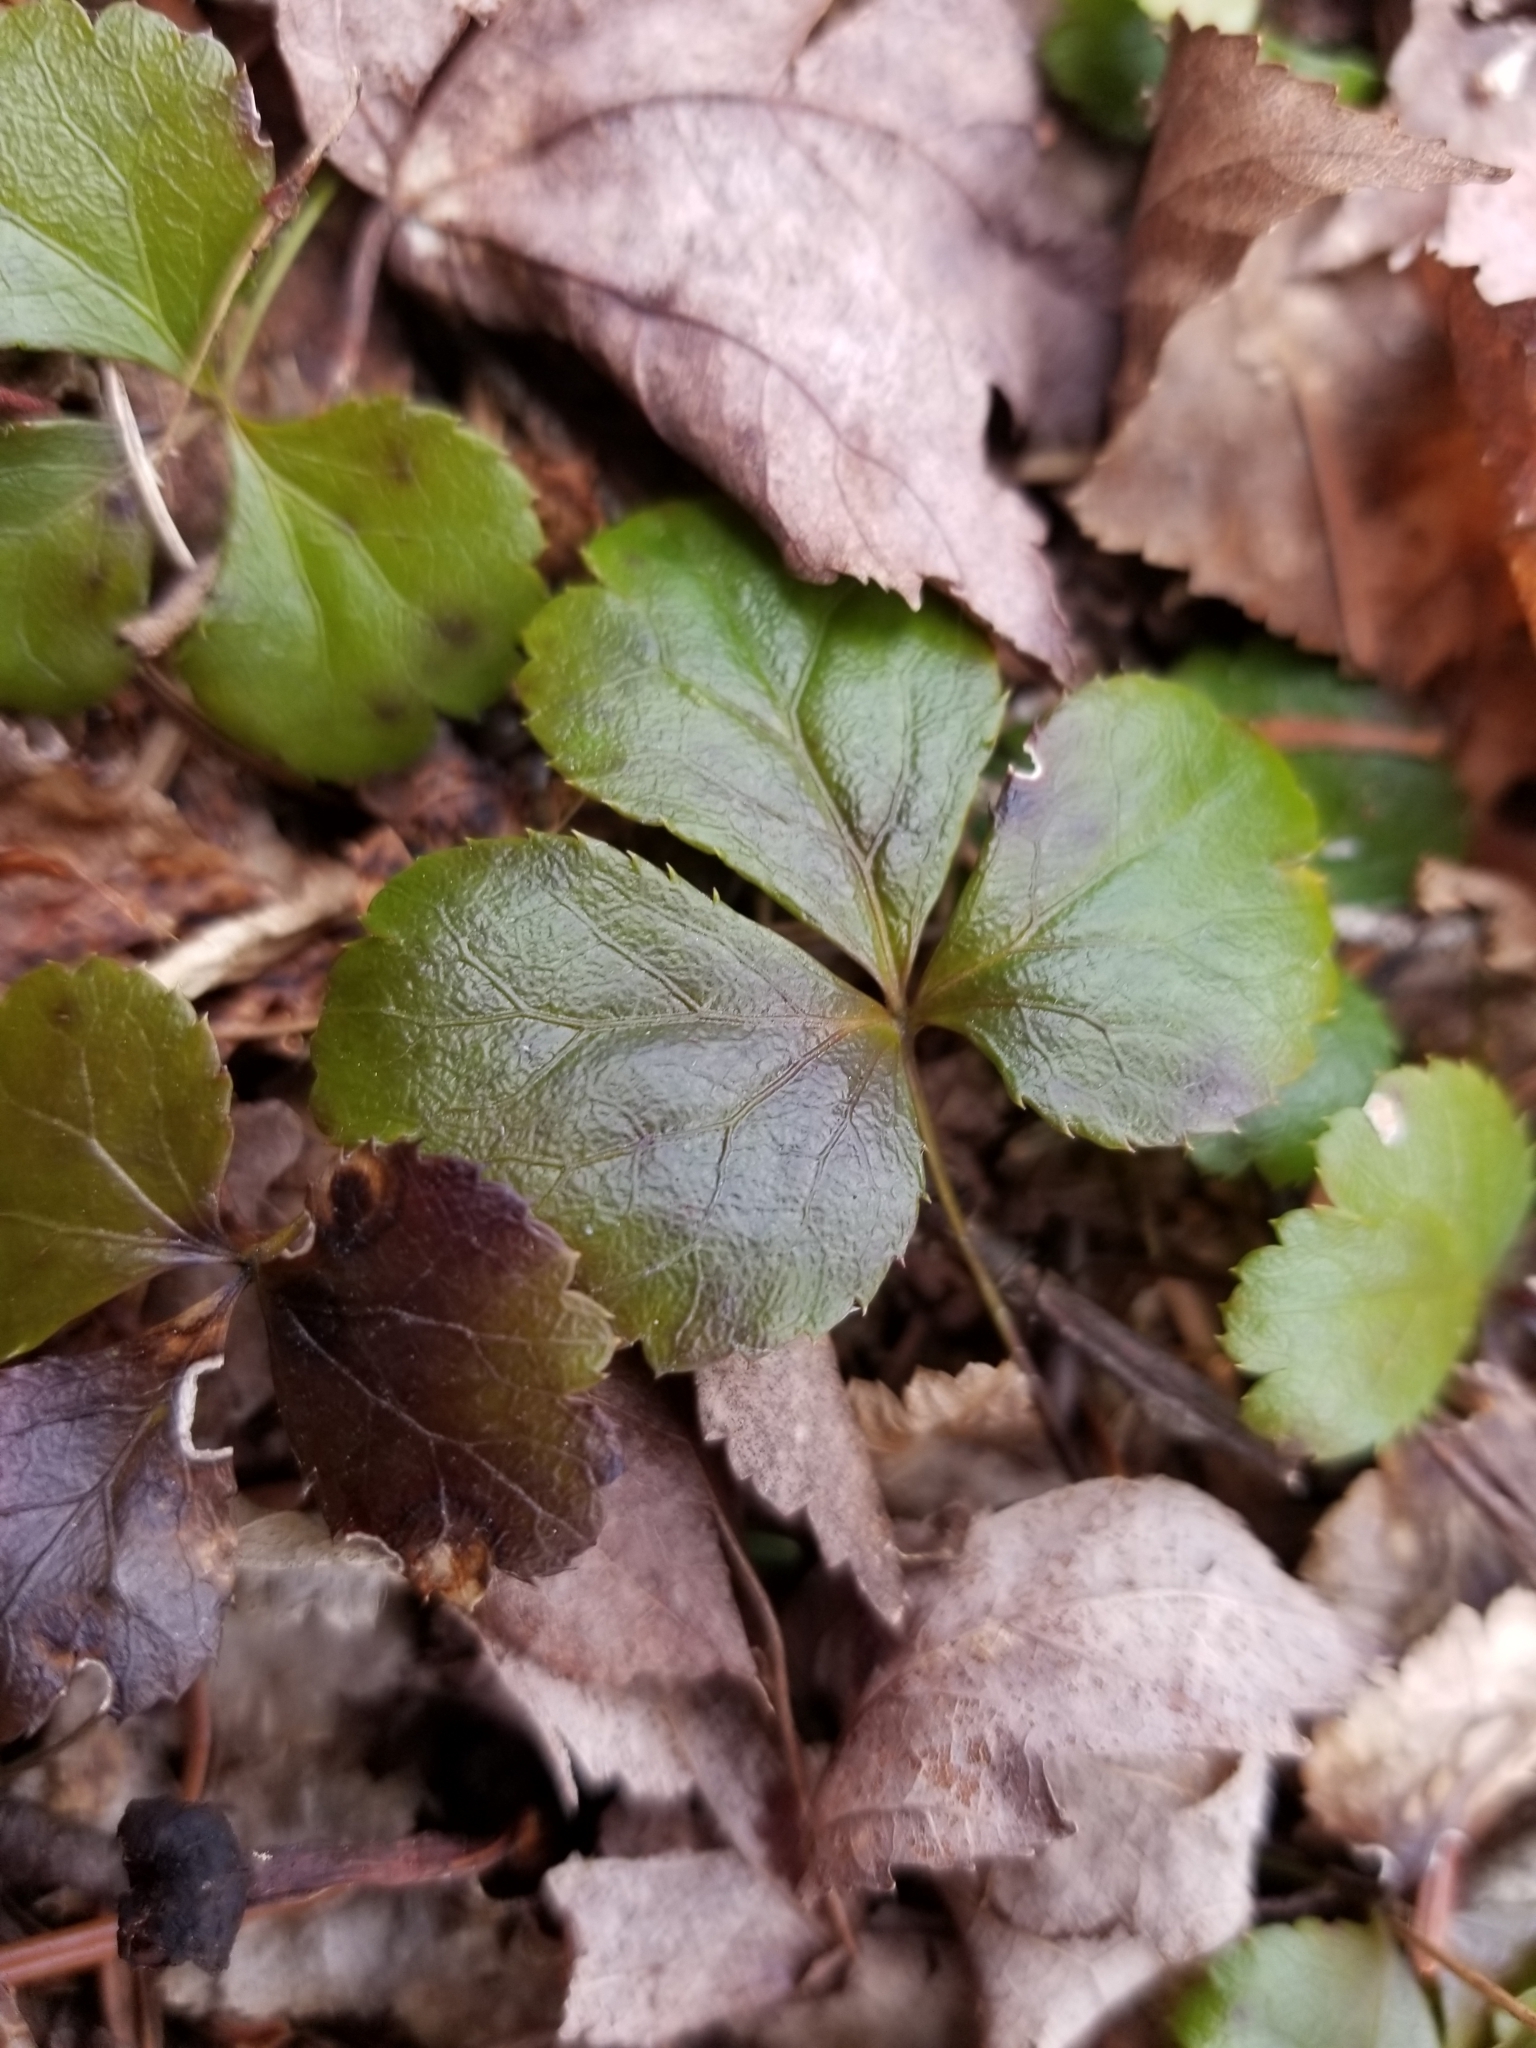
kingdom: Plantae
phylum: Tracheophyta
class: Magnoliopsida
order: Ranunculales
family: Ranunculaceae
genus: Coptis
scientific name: Coptis trifolia
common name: Canker-root
